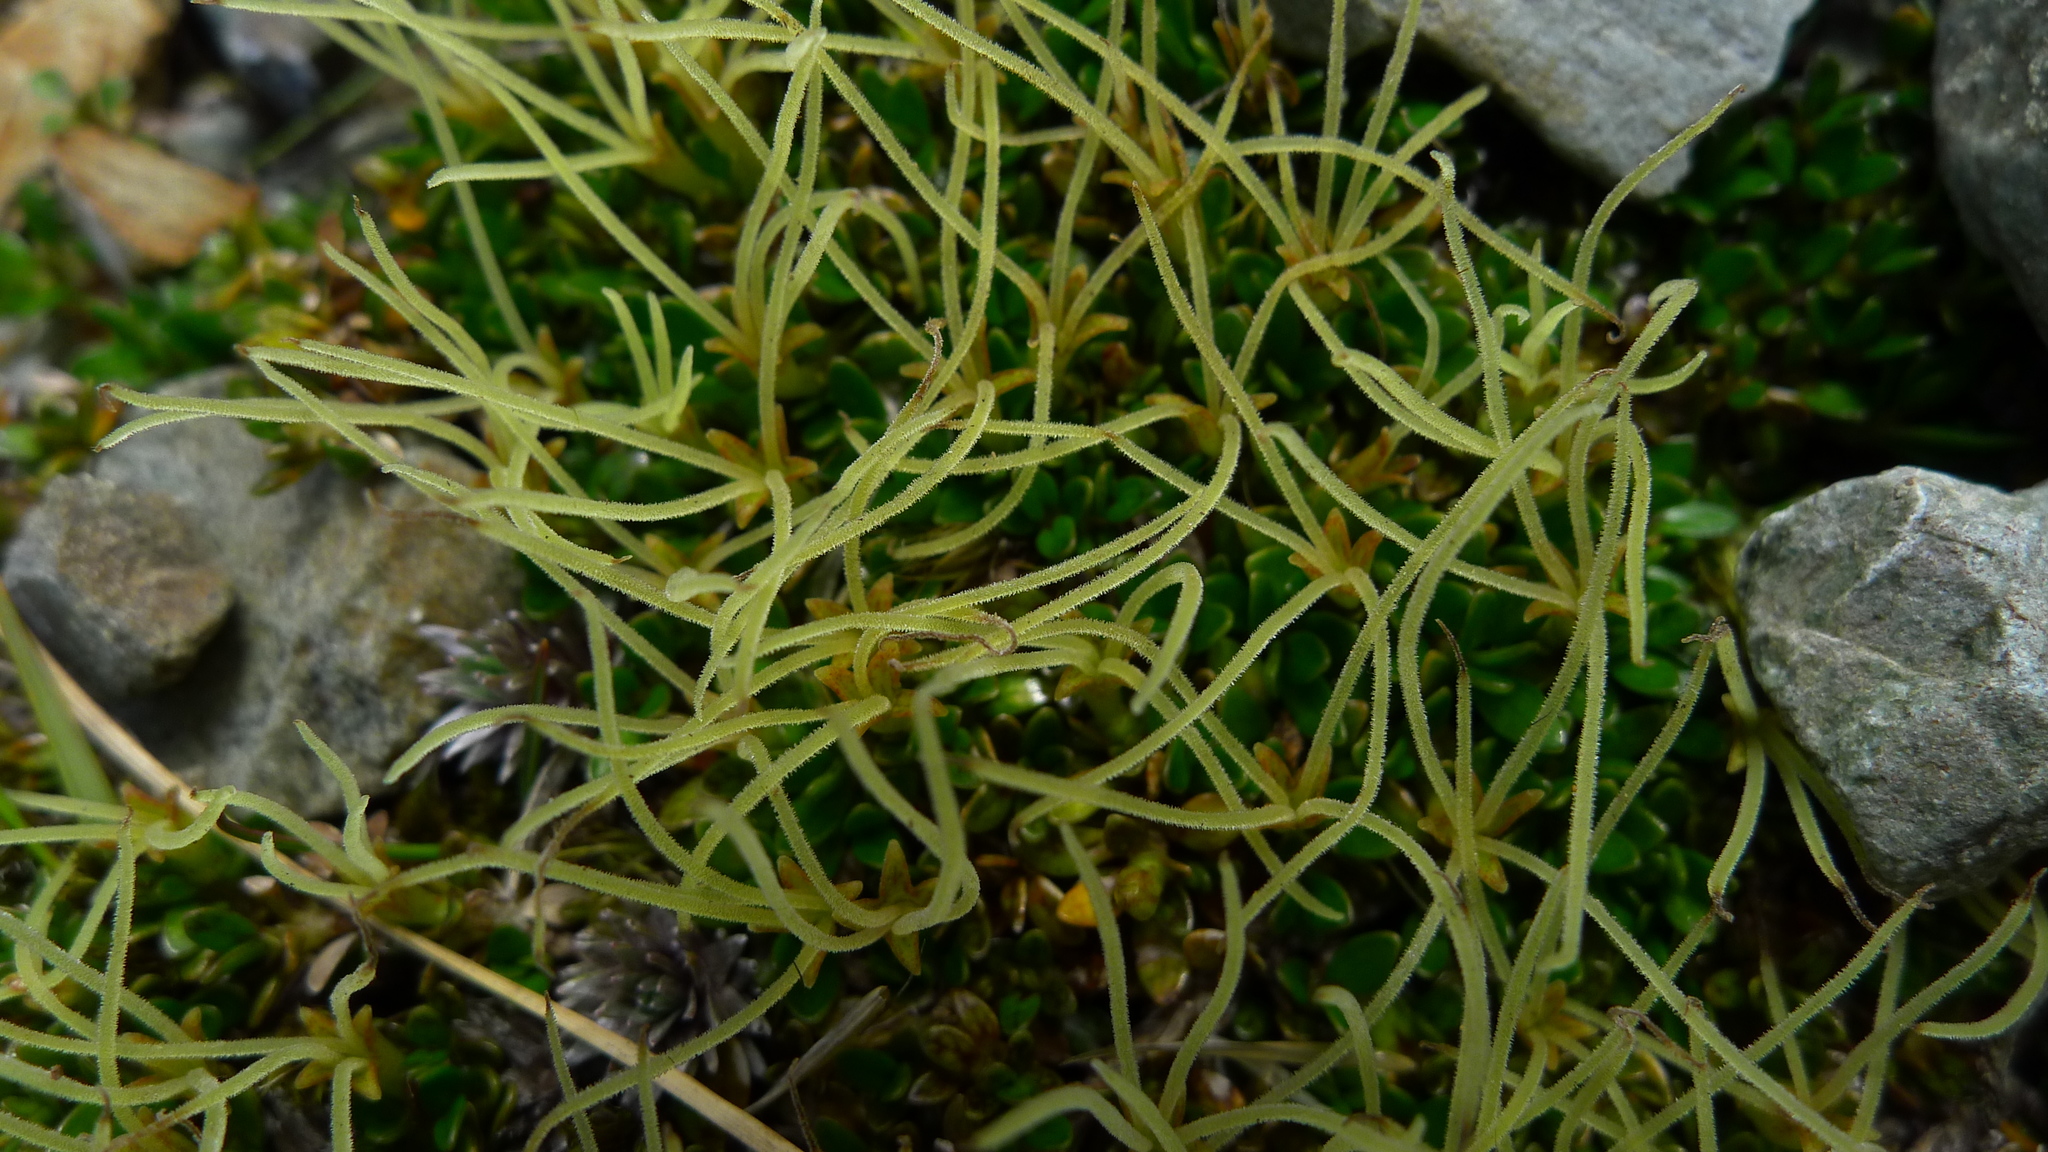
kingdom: Plantae
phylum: Tracheophyta
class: Magnoliopsida
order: Gentianales
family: Rubiaceae
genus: Coprosma
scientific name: Coprosma perpusilla
